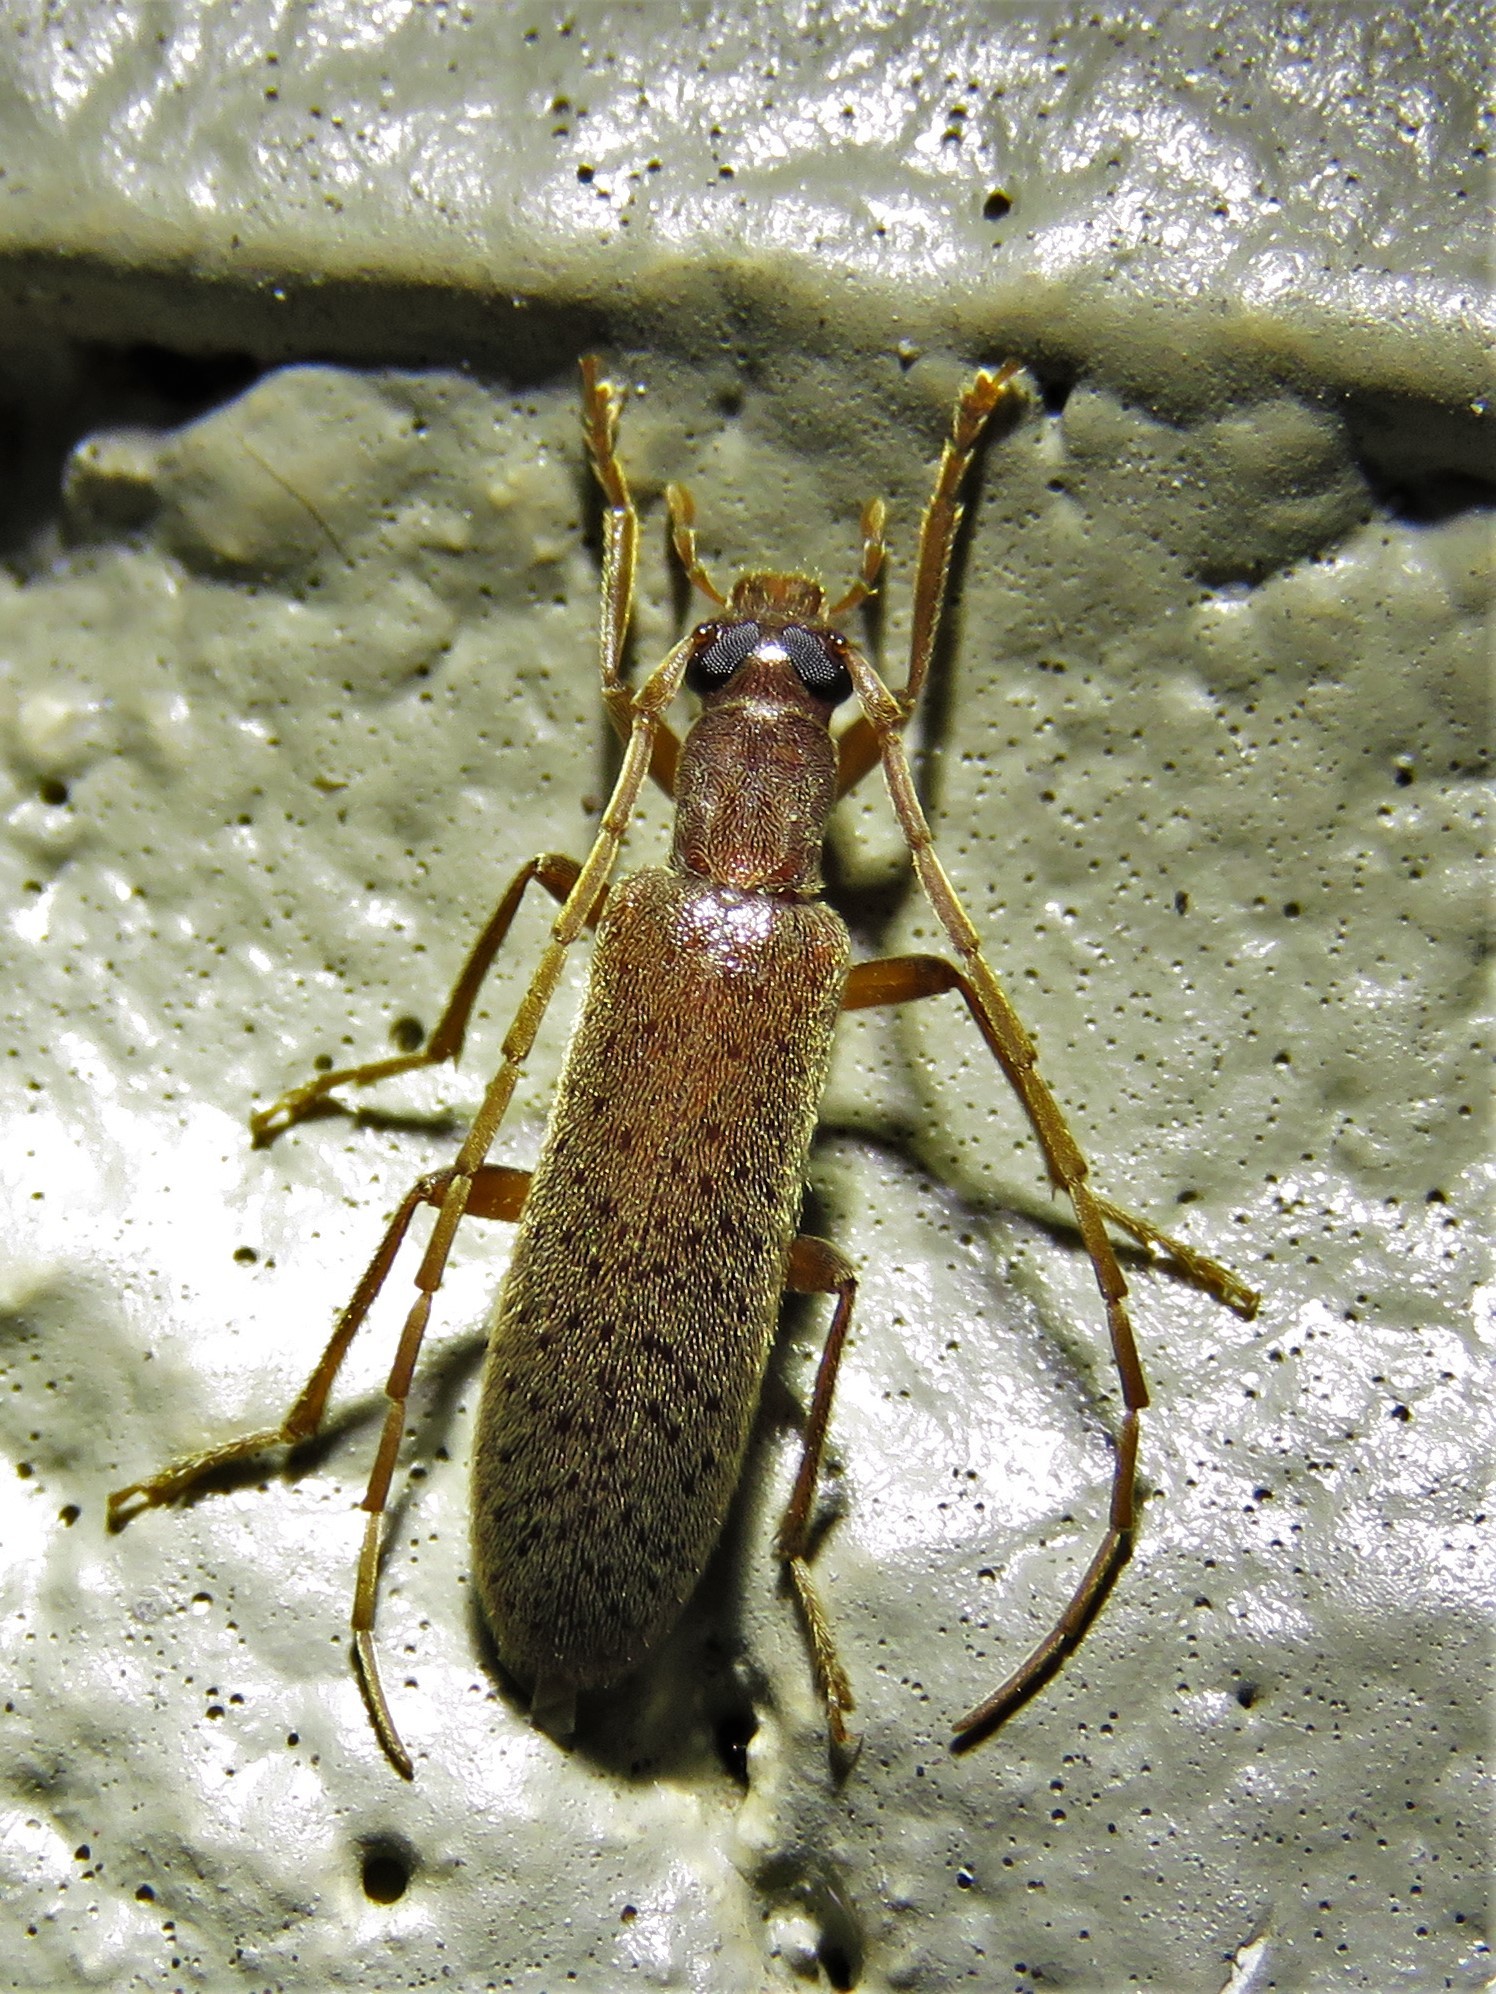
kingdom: Animalia
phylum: Arthropoda
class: Insecta
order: Coleoptera
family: Oedemeridae
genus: Sparedrus
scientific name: Sparedrus aspersus
